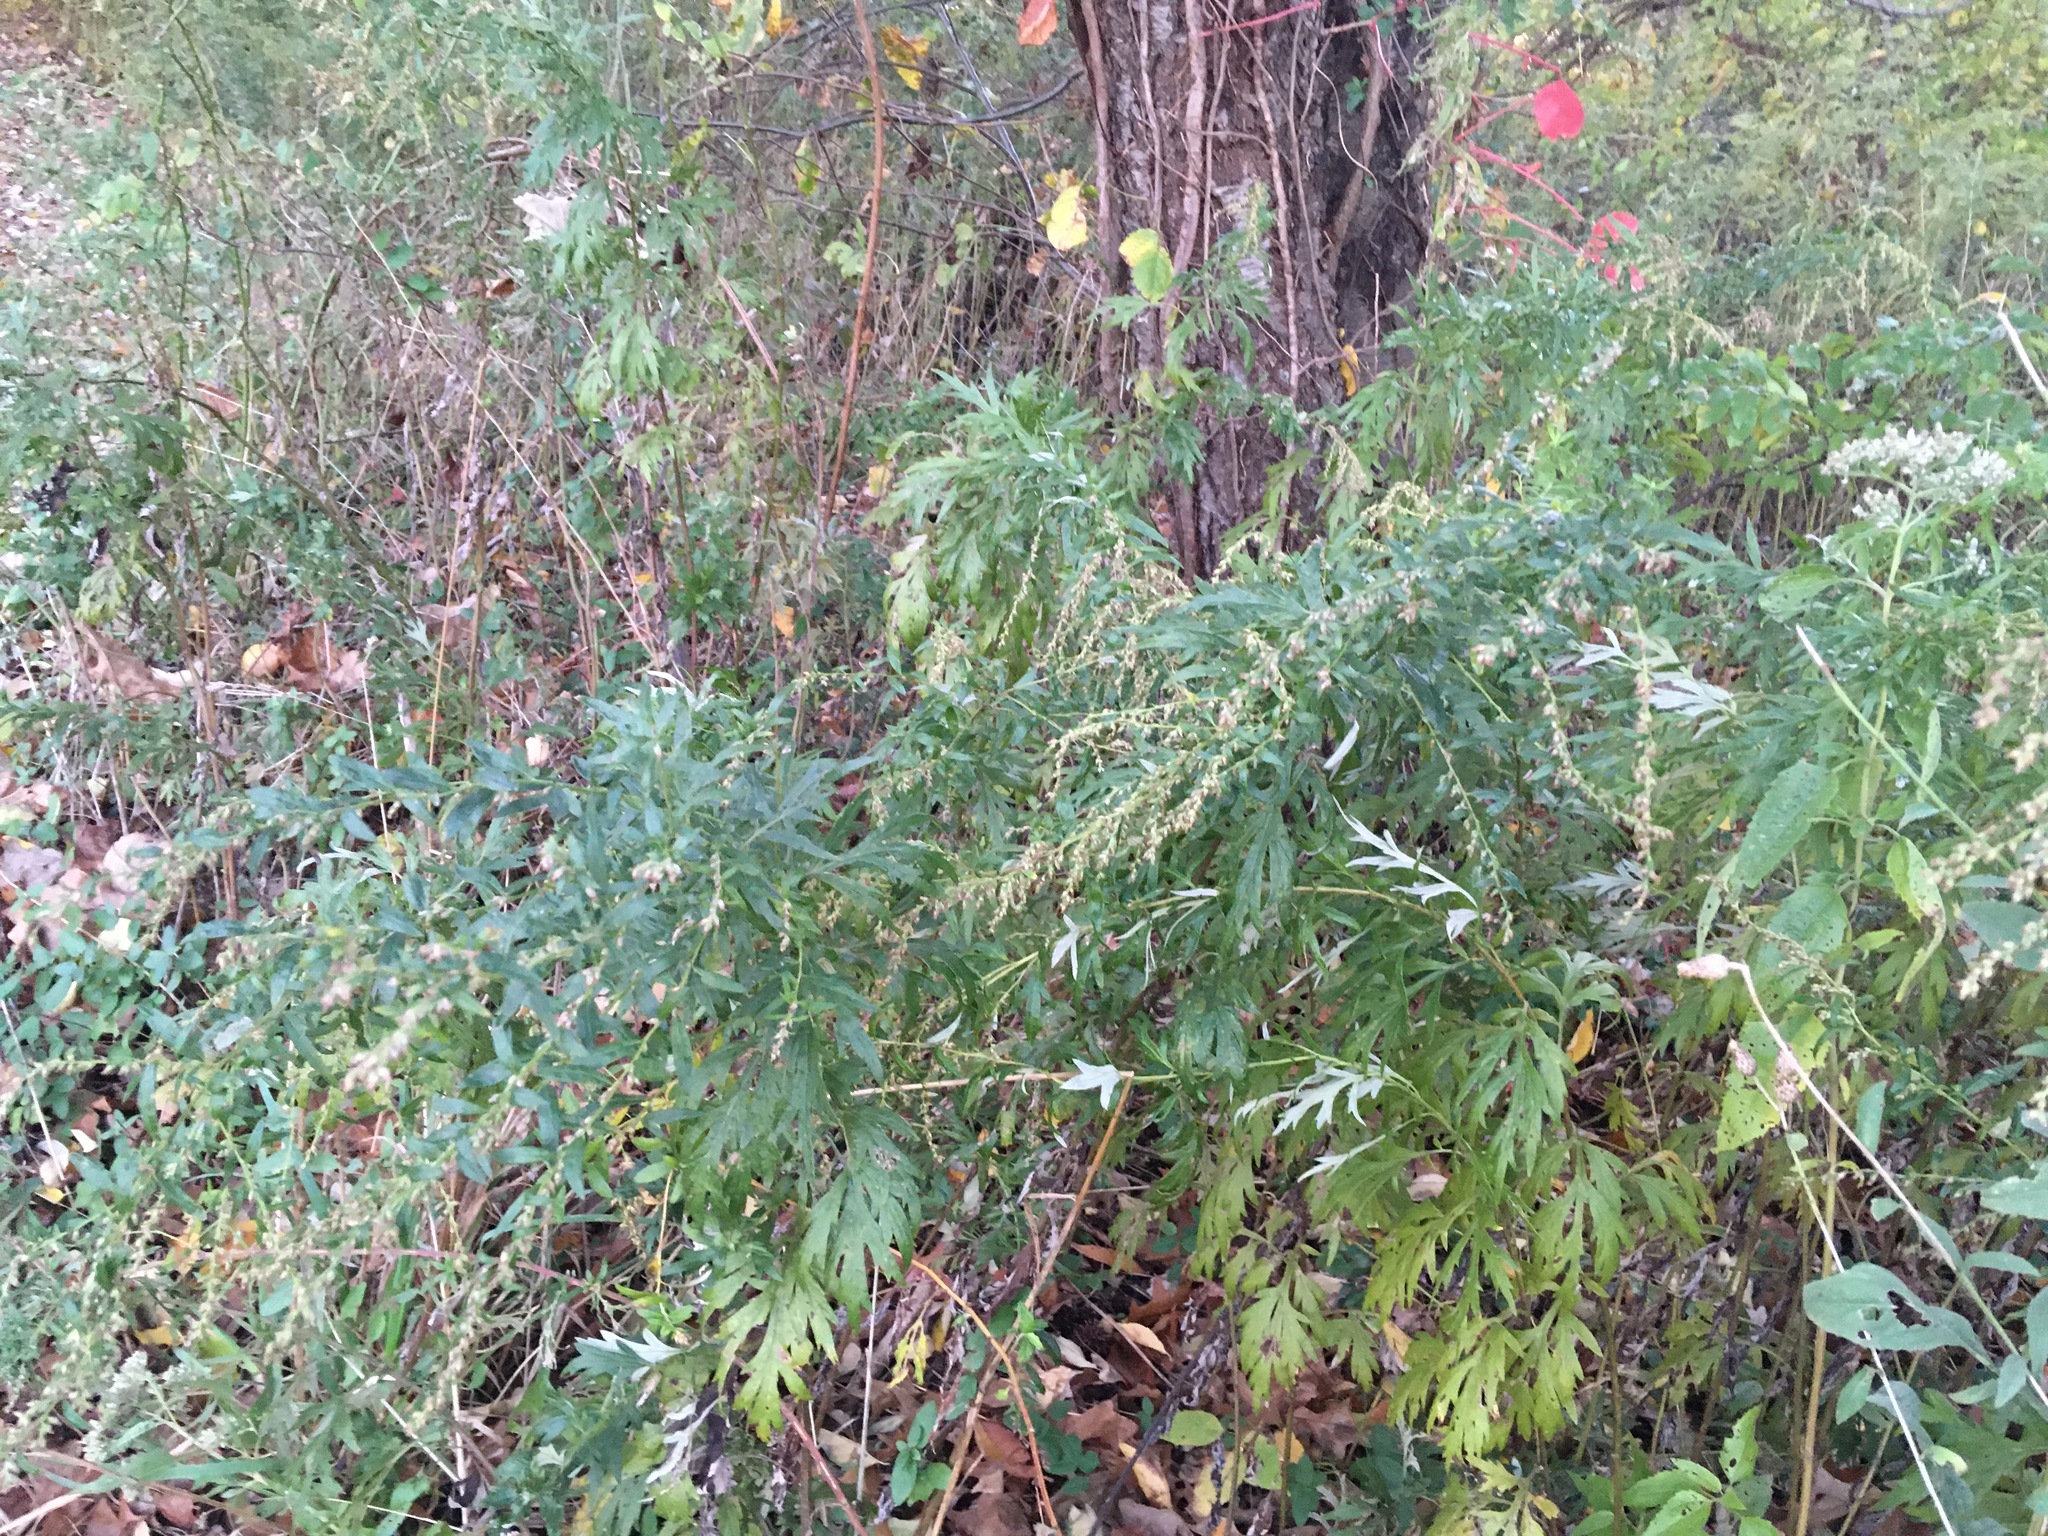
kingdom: Plantae
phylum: Tracheophyta
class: Magnoliopsida
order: Asterales
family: Asteraceae
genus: Artemisia
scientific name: Artemisia vulgaris
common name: Mugwort
